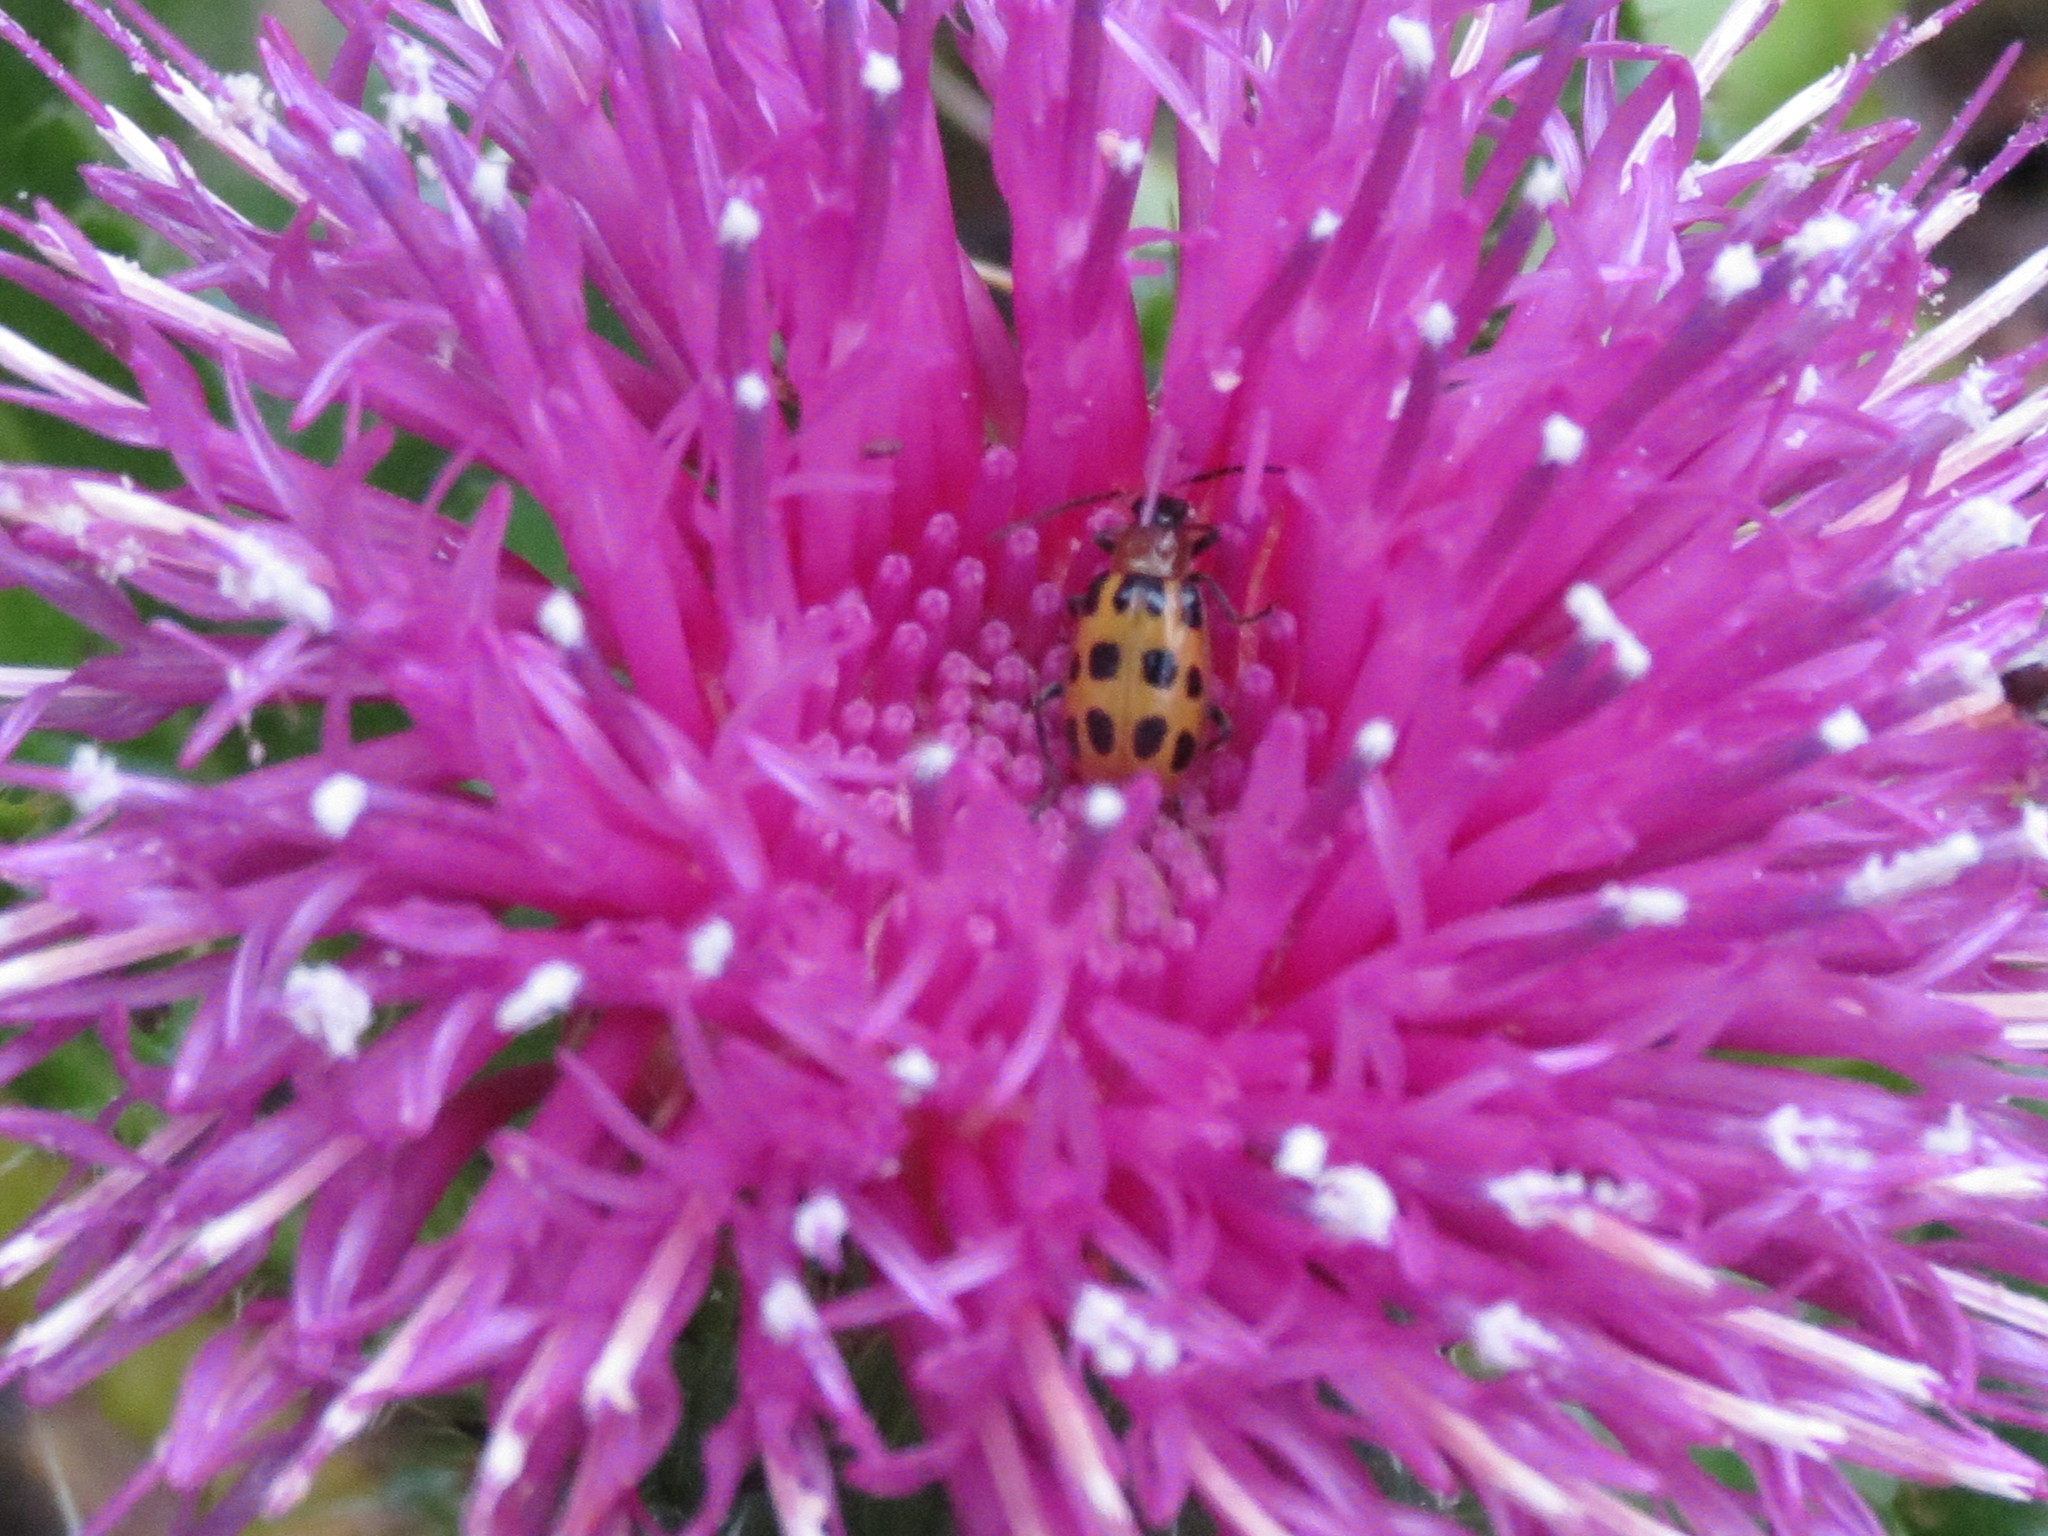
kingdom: Animalia
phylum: Arthropoda
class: Insecta
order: Coleoptera
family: Chrysomelidae
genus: Diabrotica
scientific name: Diabrotica undecimpunctata
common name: Spotted cucumber beetle
